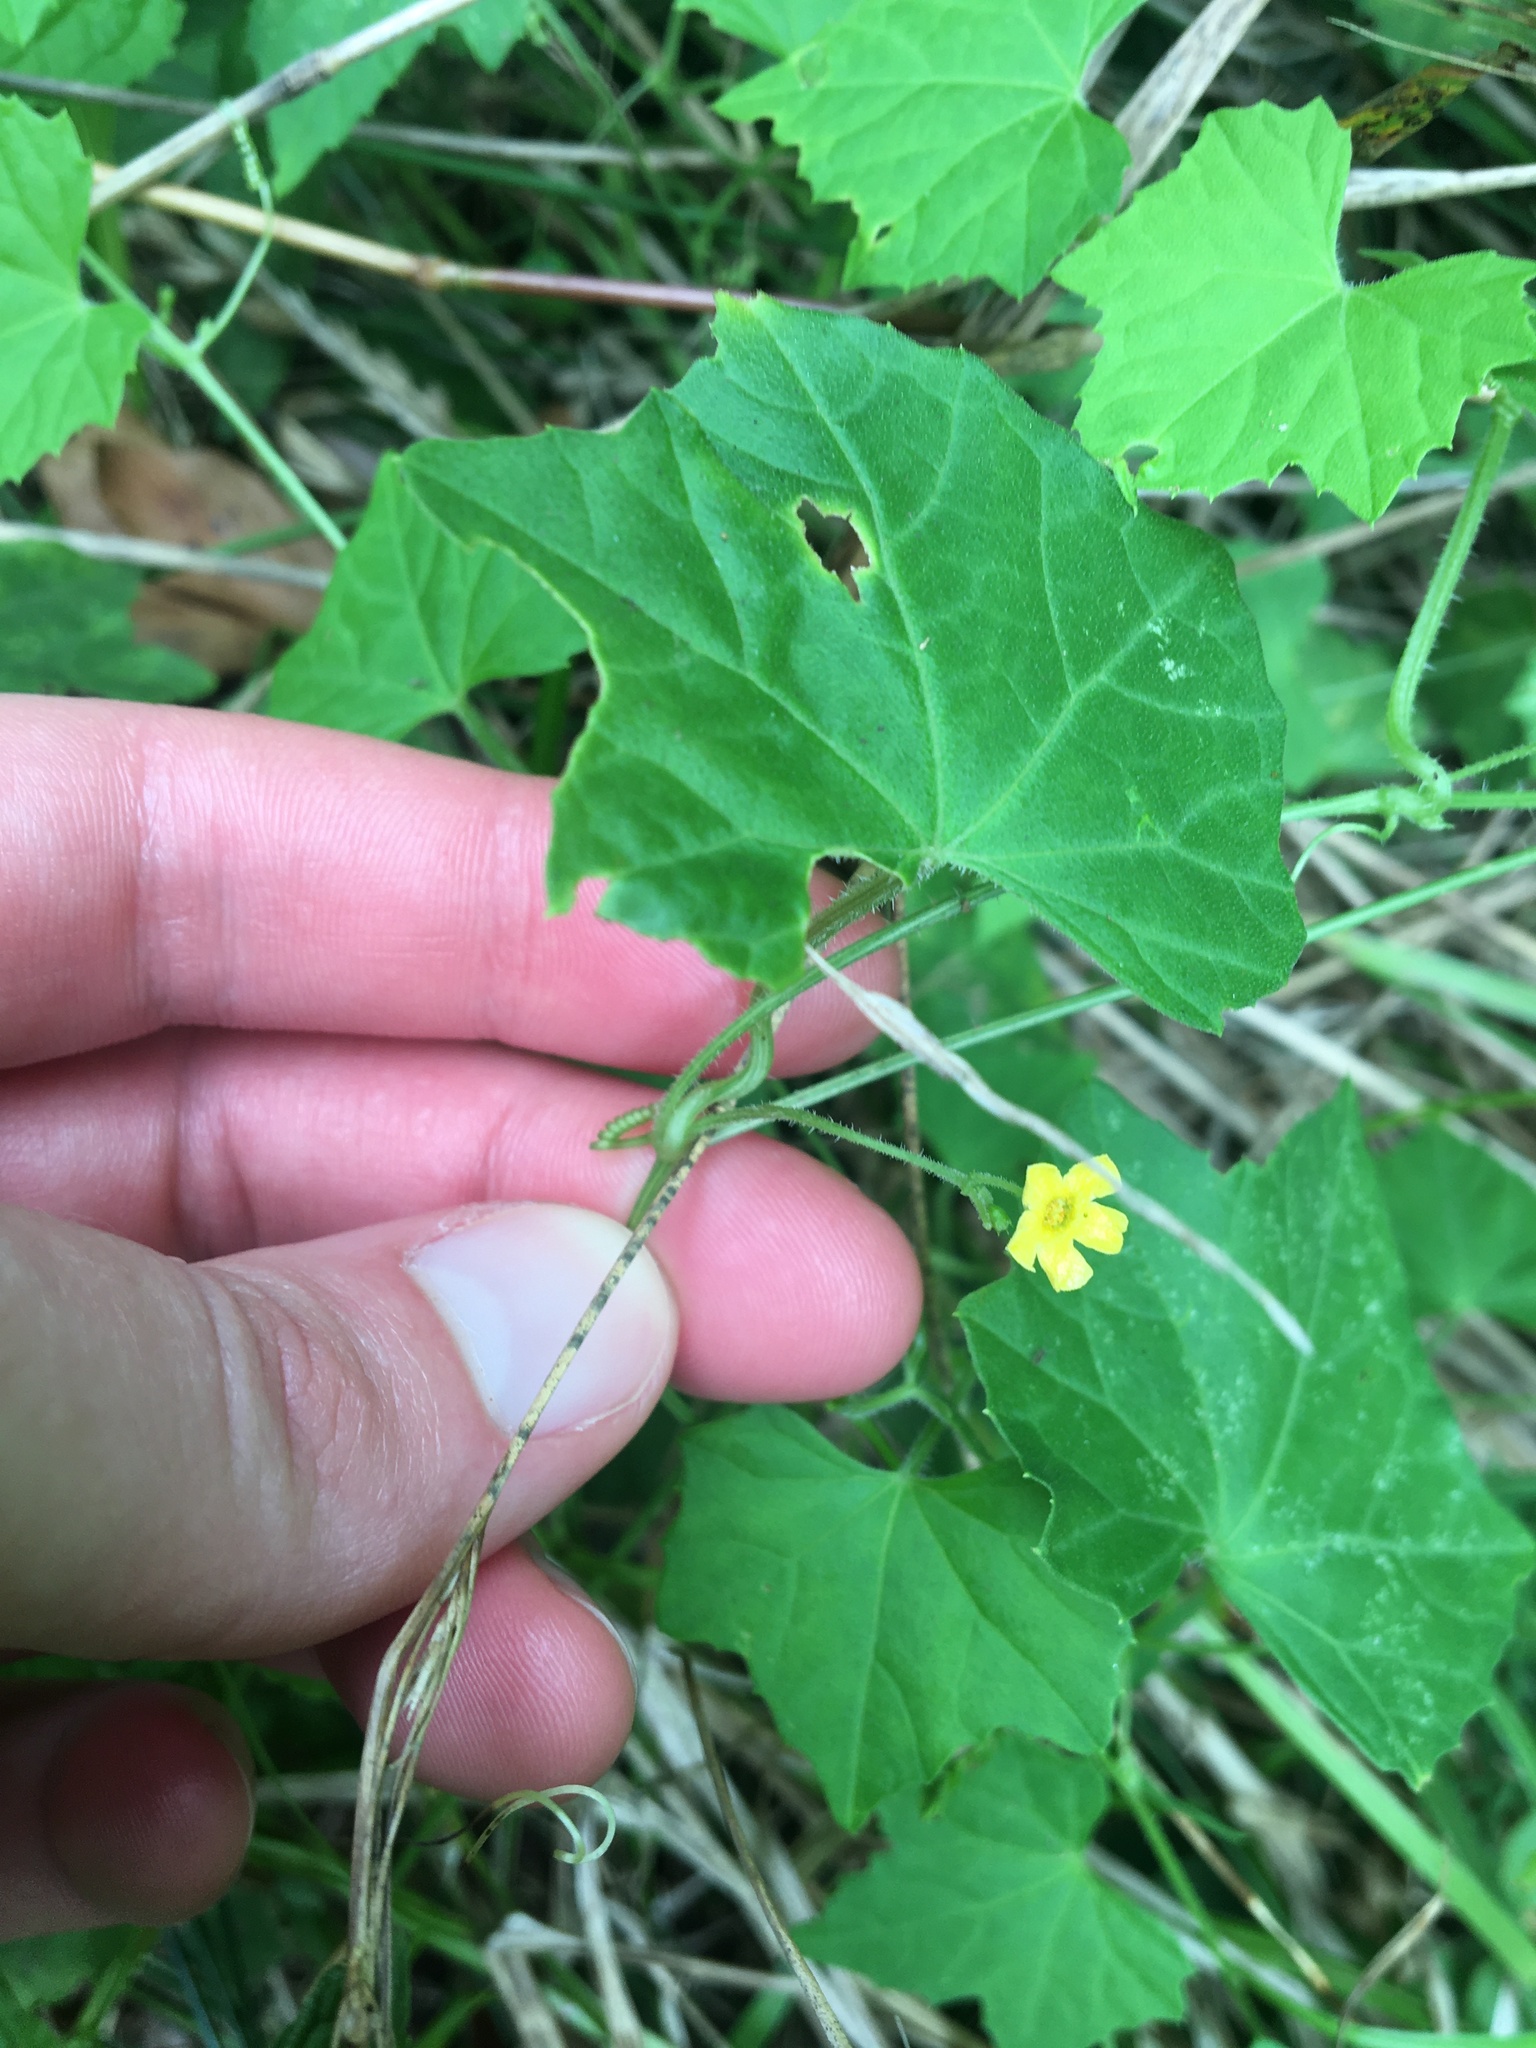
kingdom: Plantae
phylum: Tracheophyta
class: Magnoliopsida
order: Cucurbitales
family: Cucurbitaceae
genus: Melothria
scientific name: Melothria pendula
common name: Creeping-cucumber
